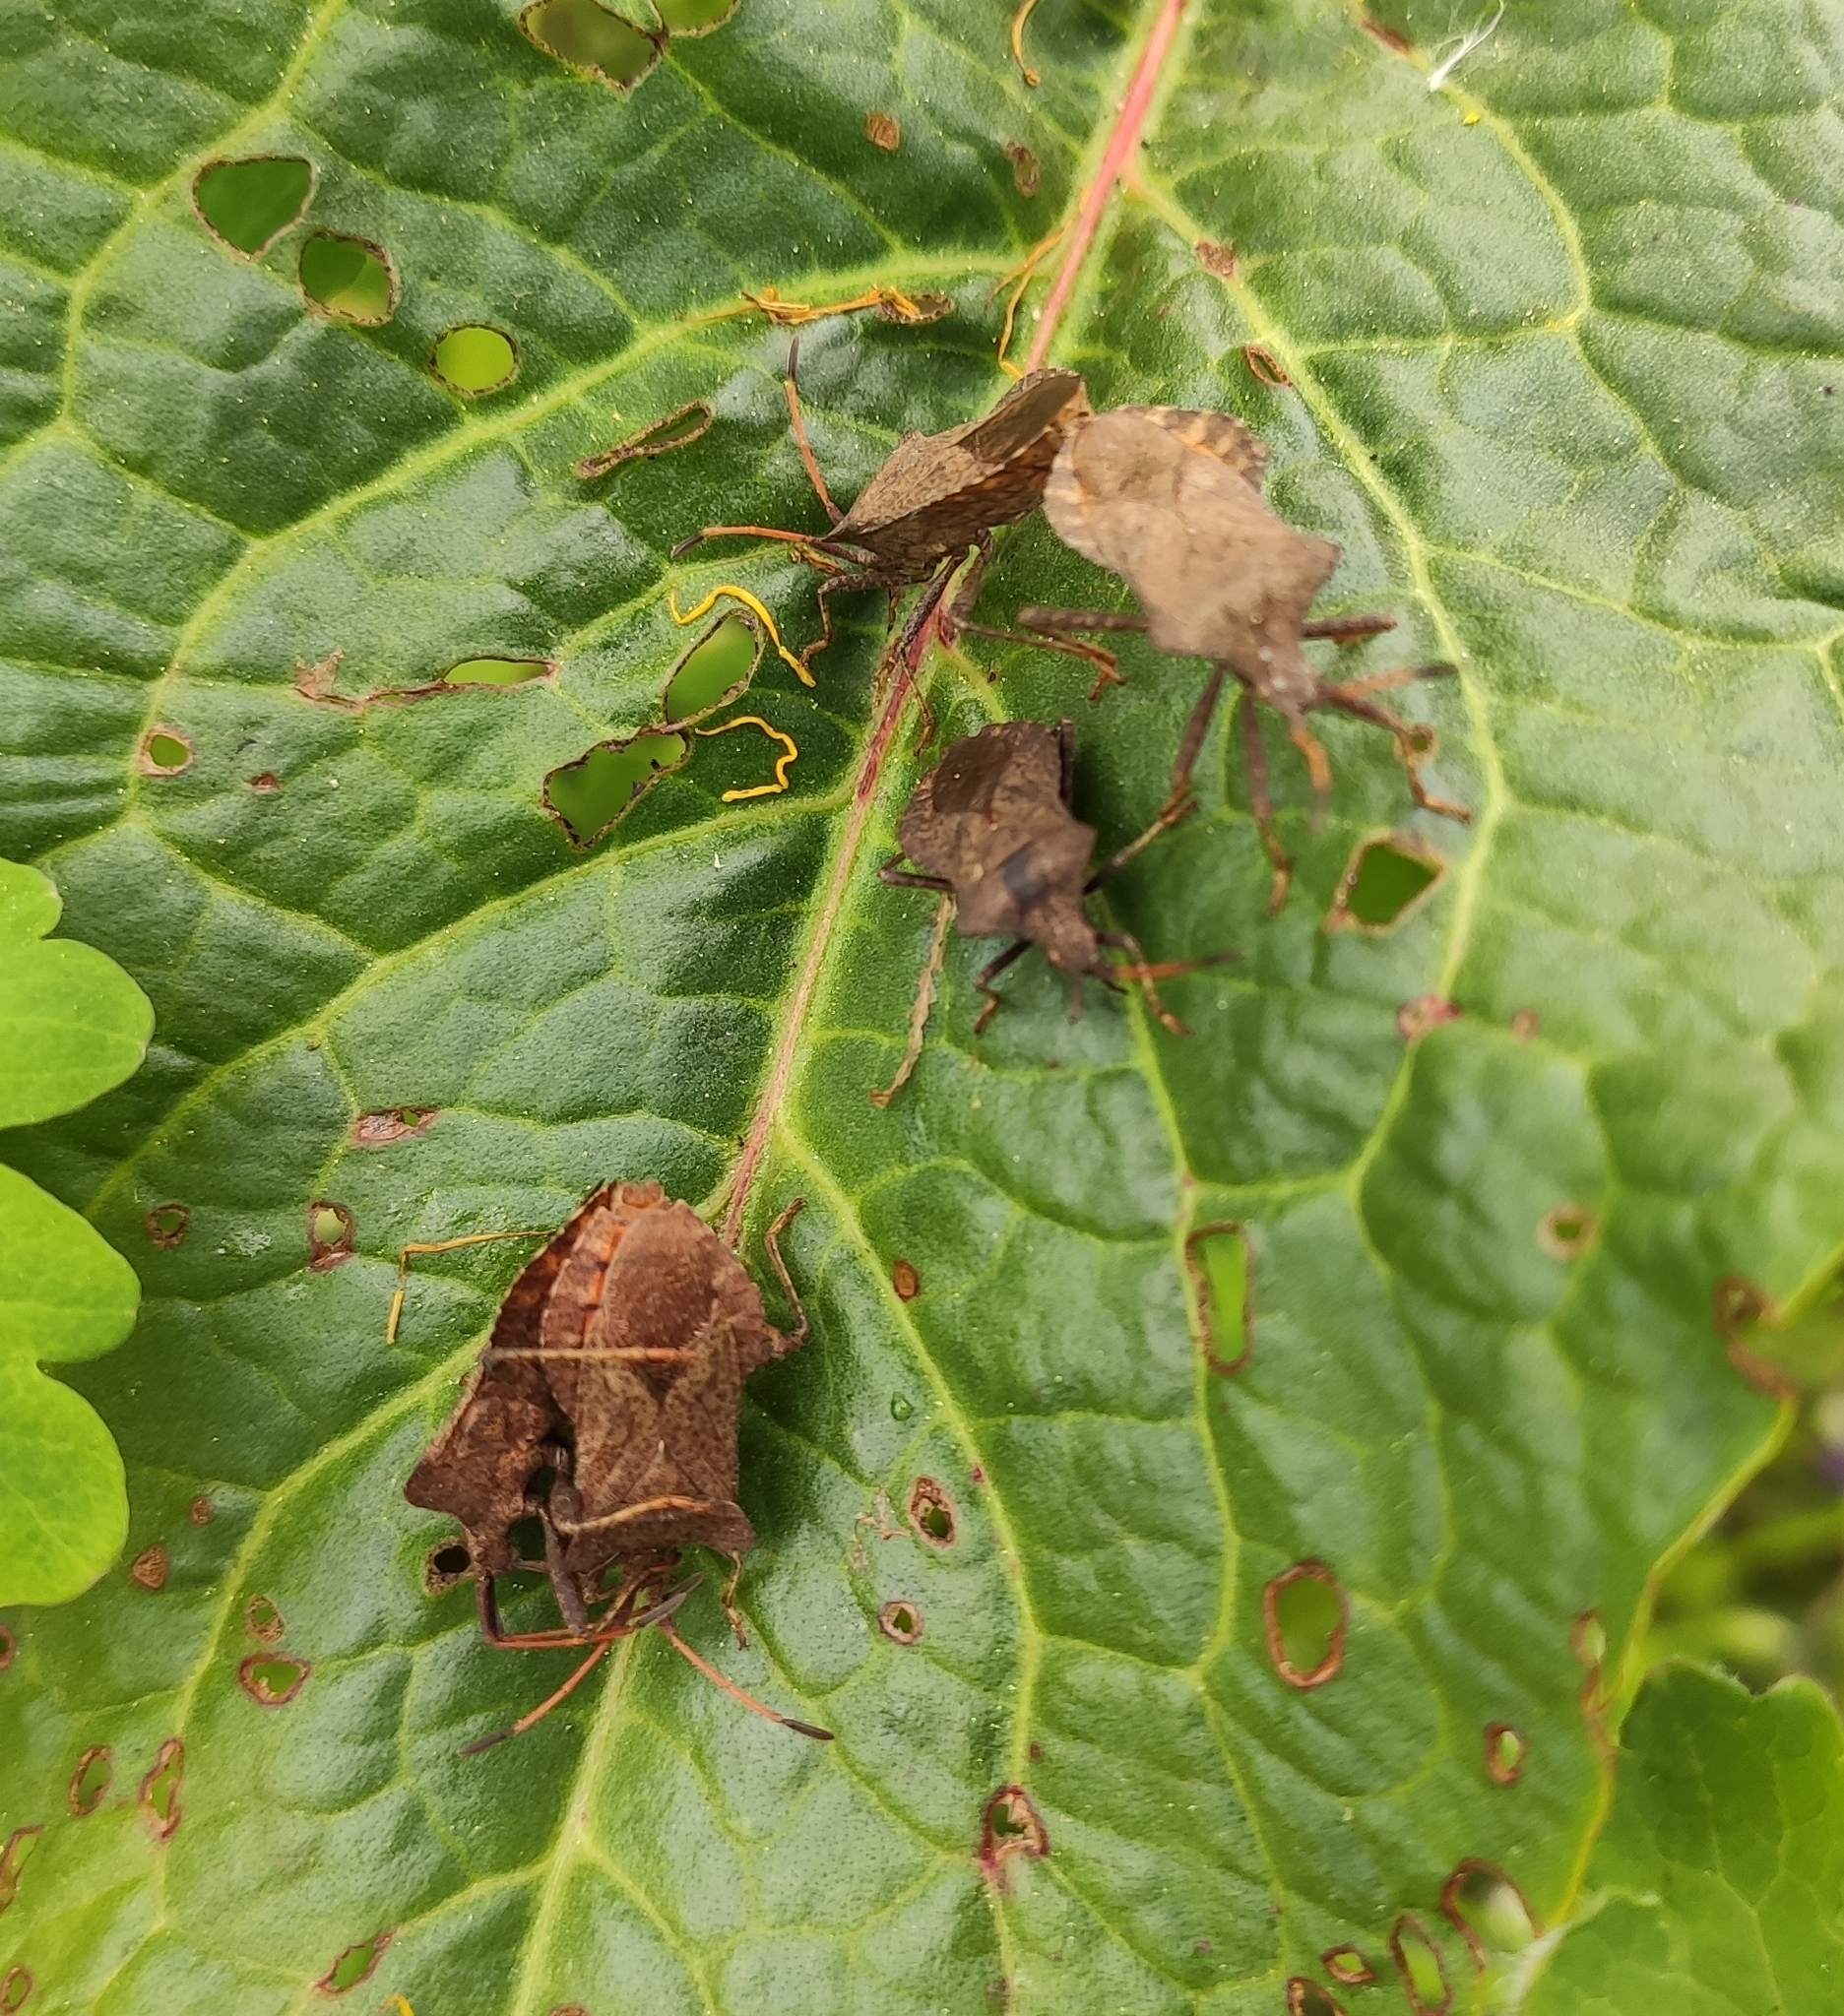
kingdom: Animalia
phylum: Arthropoda
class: Insecta
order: Hemiptera
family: Coreidae
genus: Coreus
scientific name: Coreus marginatus
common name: Dock bug
